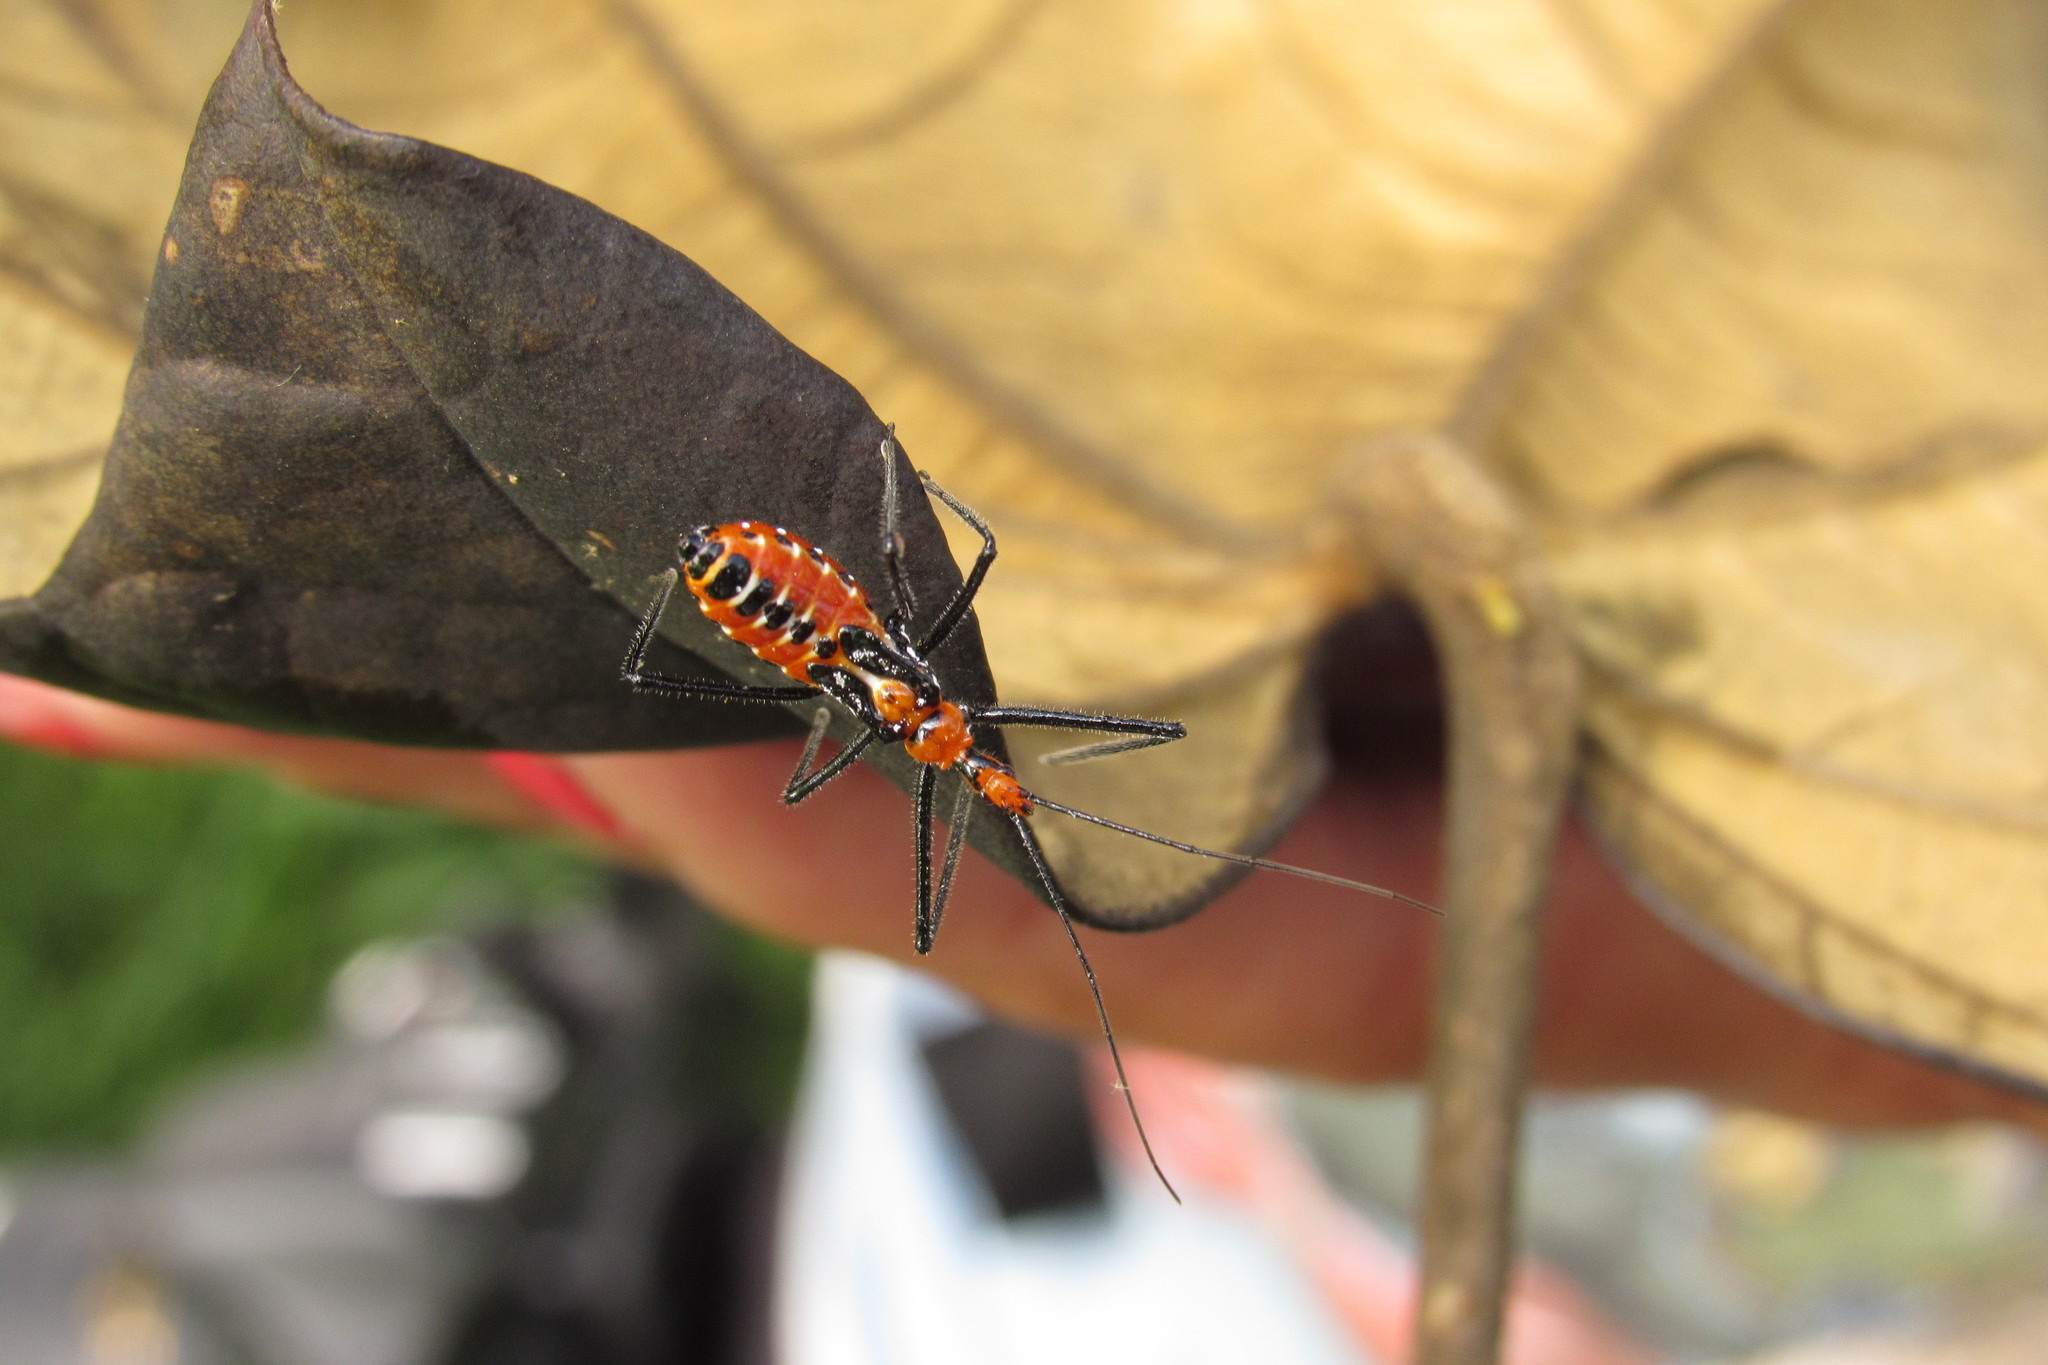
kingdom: Animalia
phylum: Arthropoda
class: Insecta
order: Hemiptera
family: Reduviidae
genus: Zelus
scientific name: Zelus longipes
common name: Milkweed assassin bug
